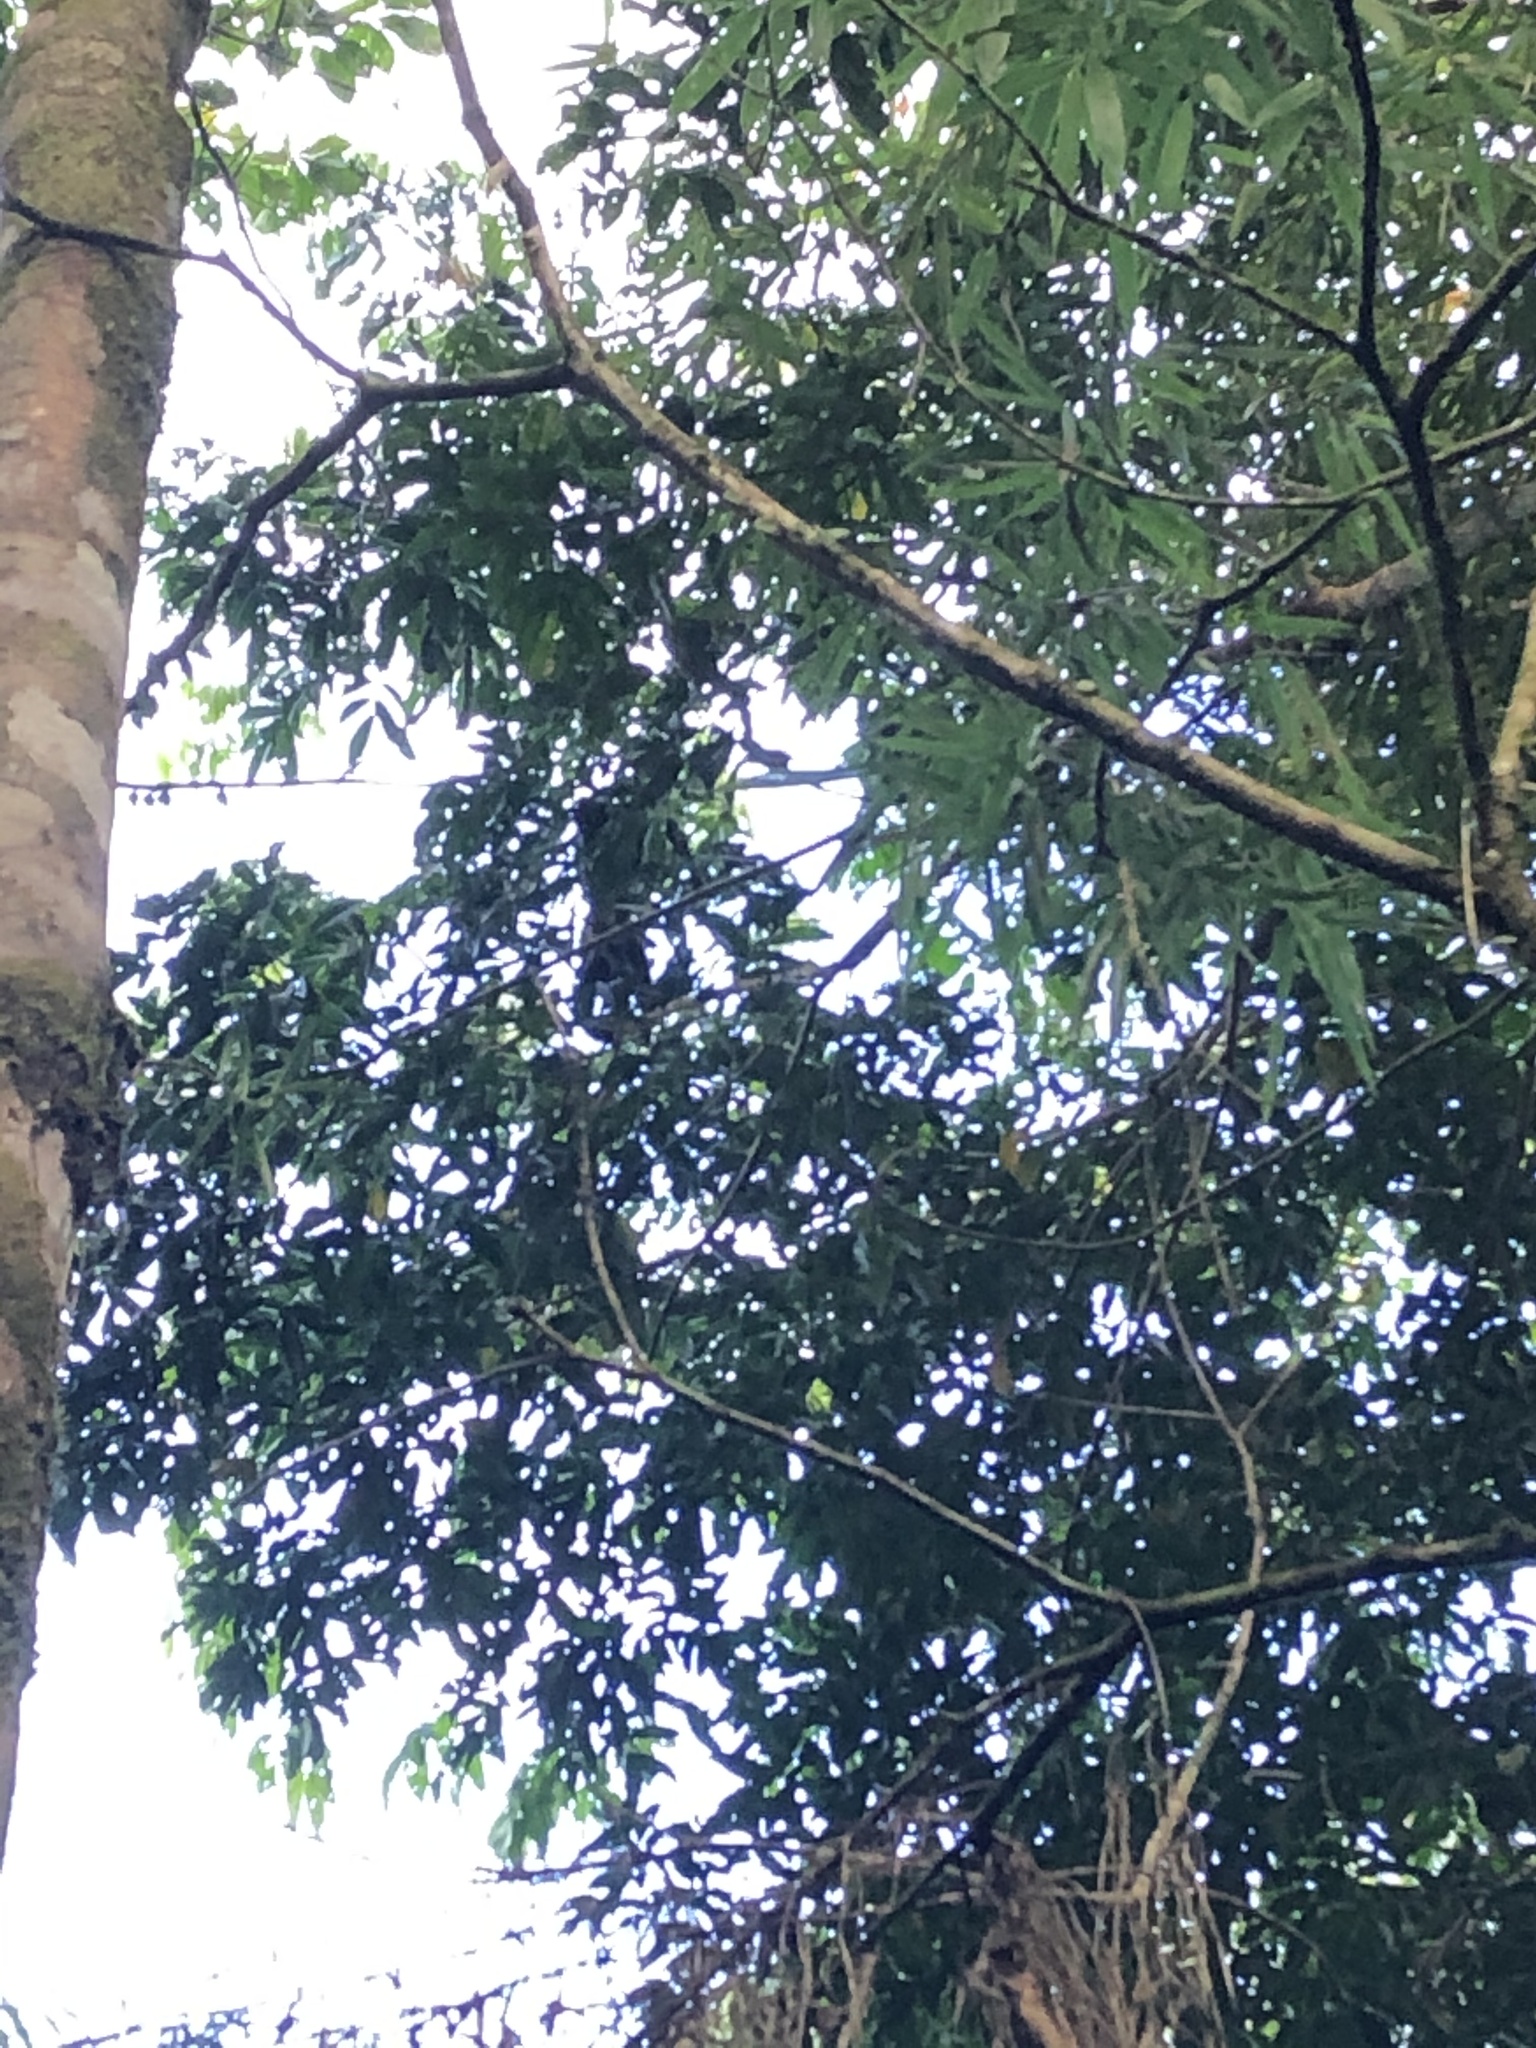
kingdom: Animalia
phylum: Chordata
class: Mammalia
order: Primates
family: Cebidae
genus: Sapajus
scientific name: Sapajus apella
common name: Tufted capuchin
